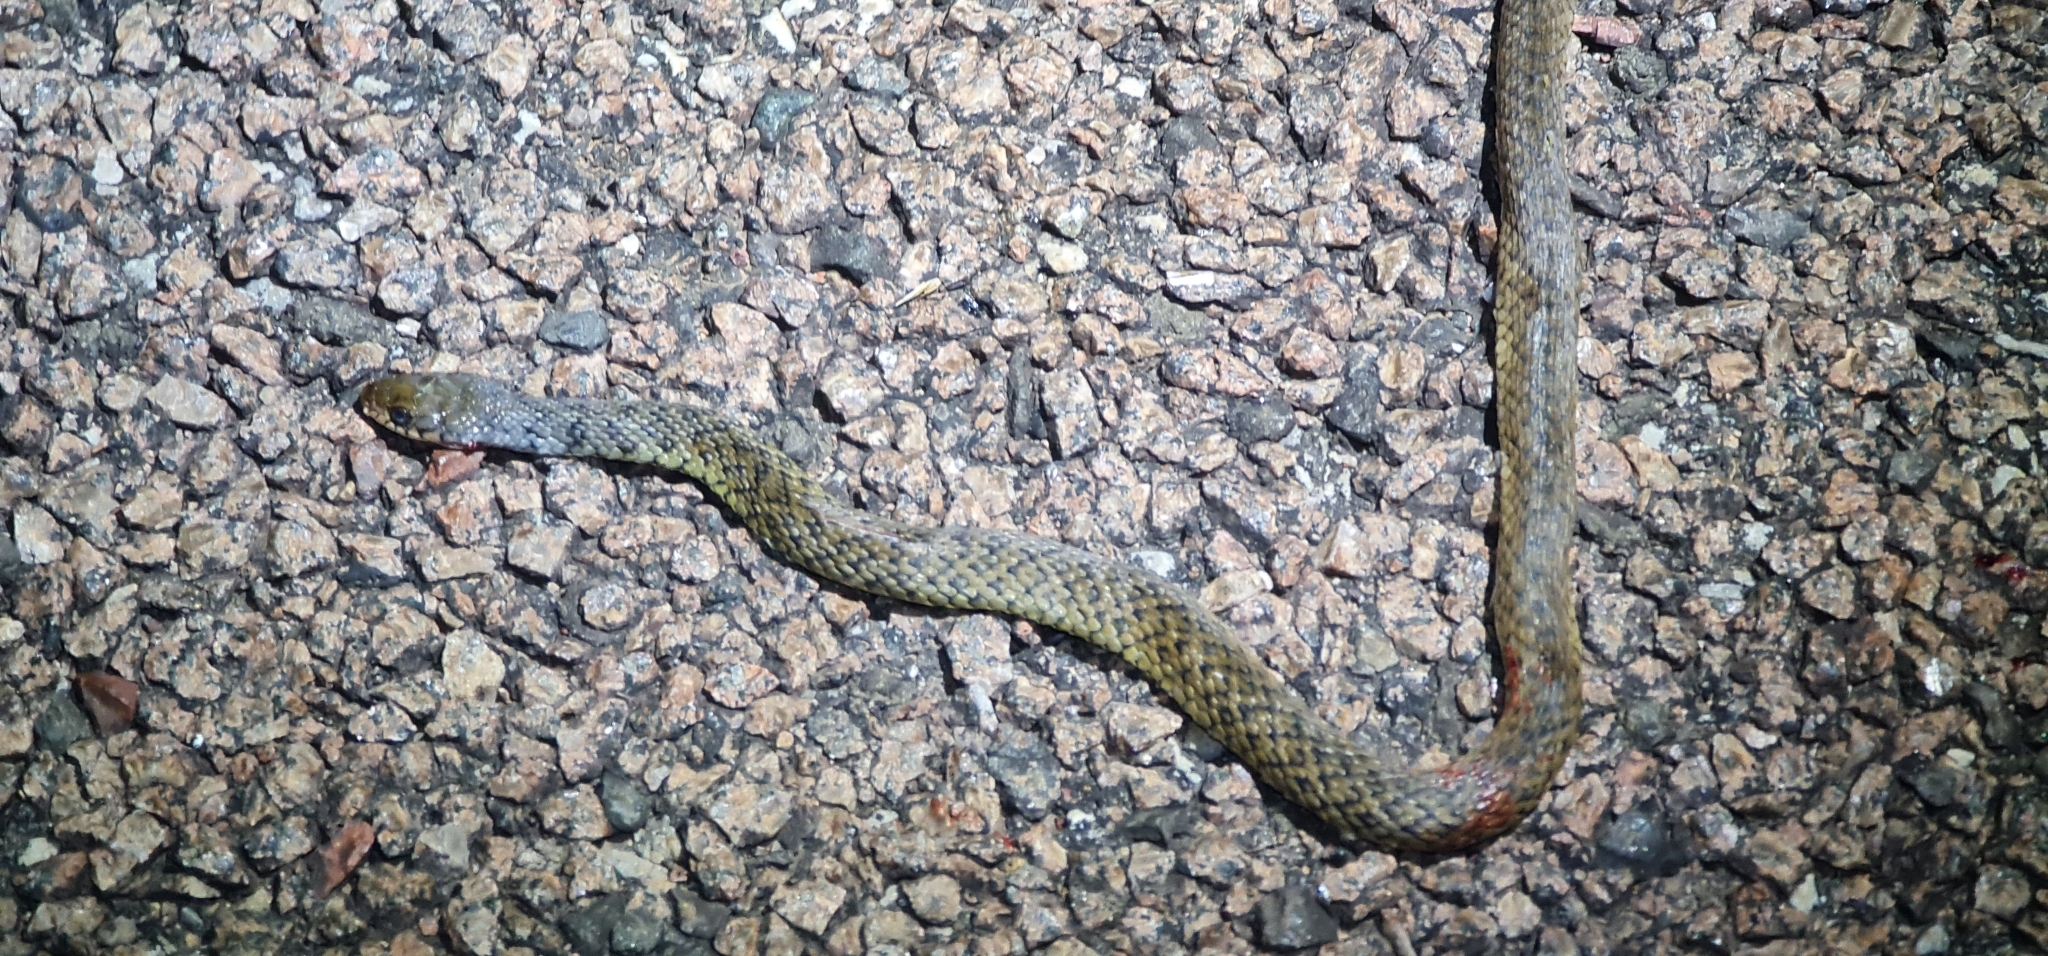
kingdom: Animalia
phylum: Chordata
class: Squamata
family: Colubridae
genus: Tropidonophis
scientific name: Tropidonophis mairii
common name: Common keelback
